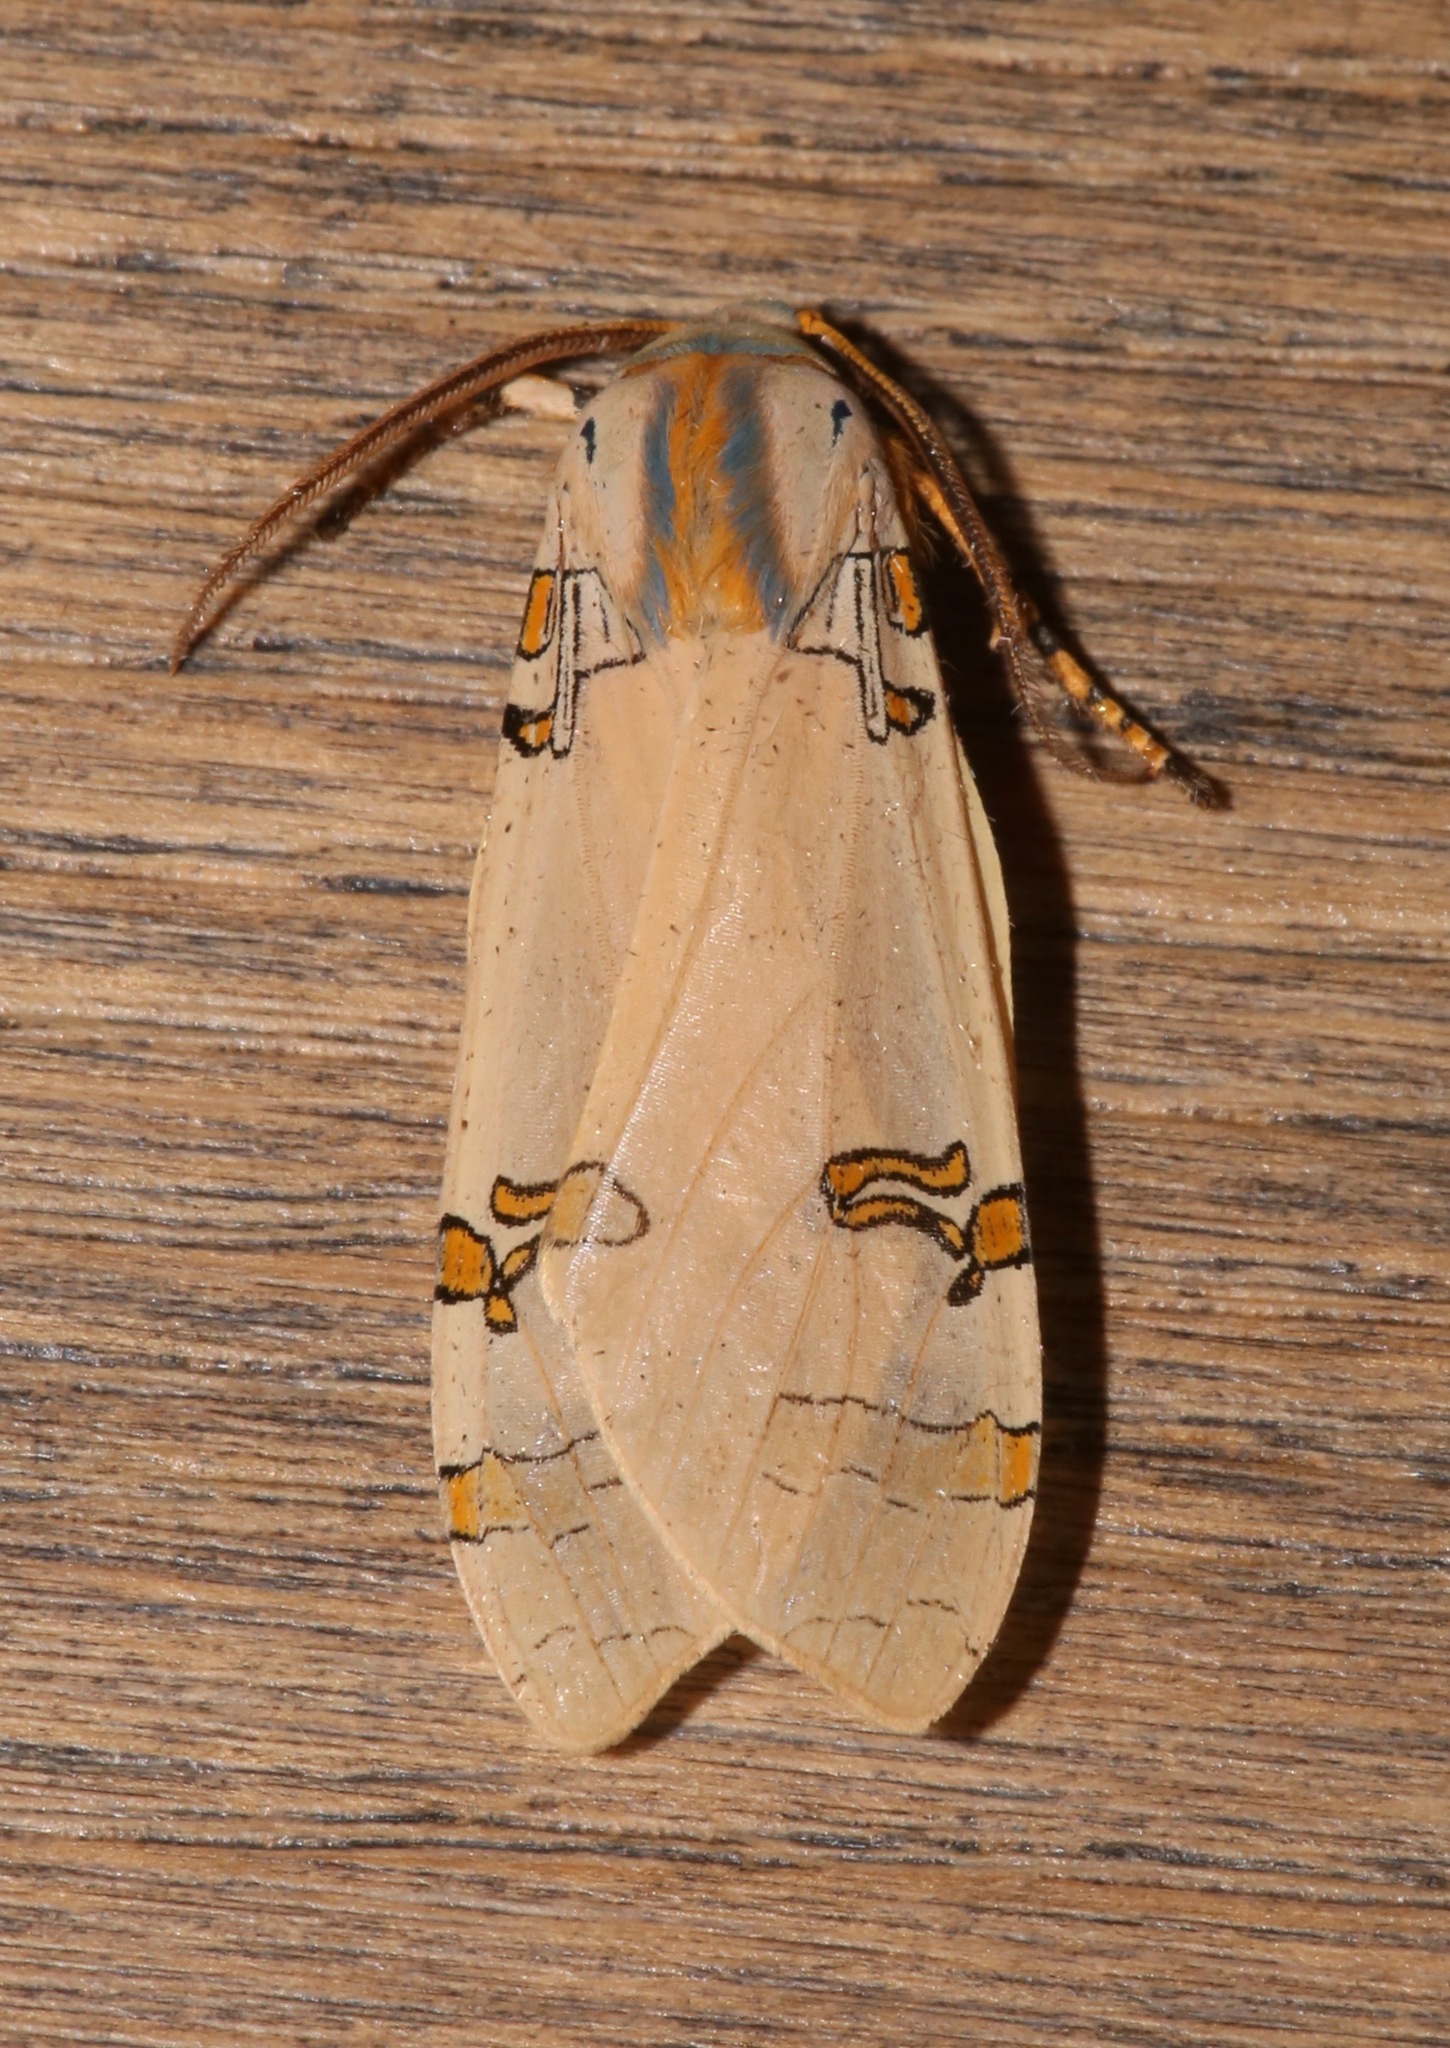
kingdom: Animalia
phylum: Arthropoda
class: Insecta
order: Lepidoptera
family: Erebidae
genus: Halysidota
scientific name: Halysidota davisii
